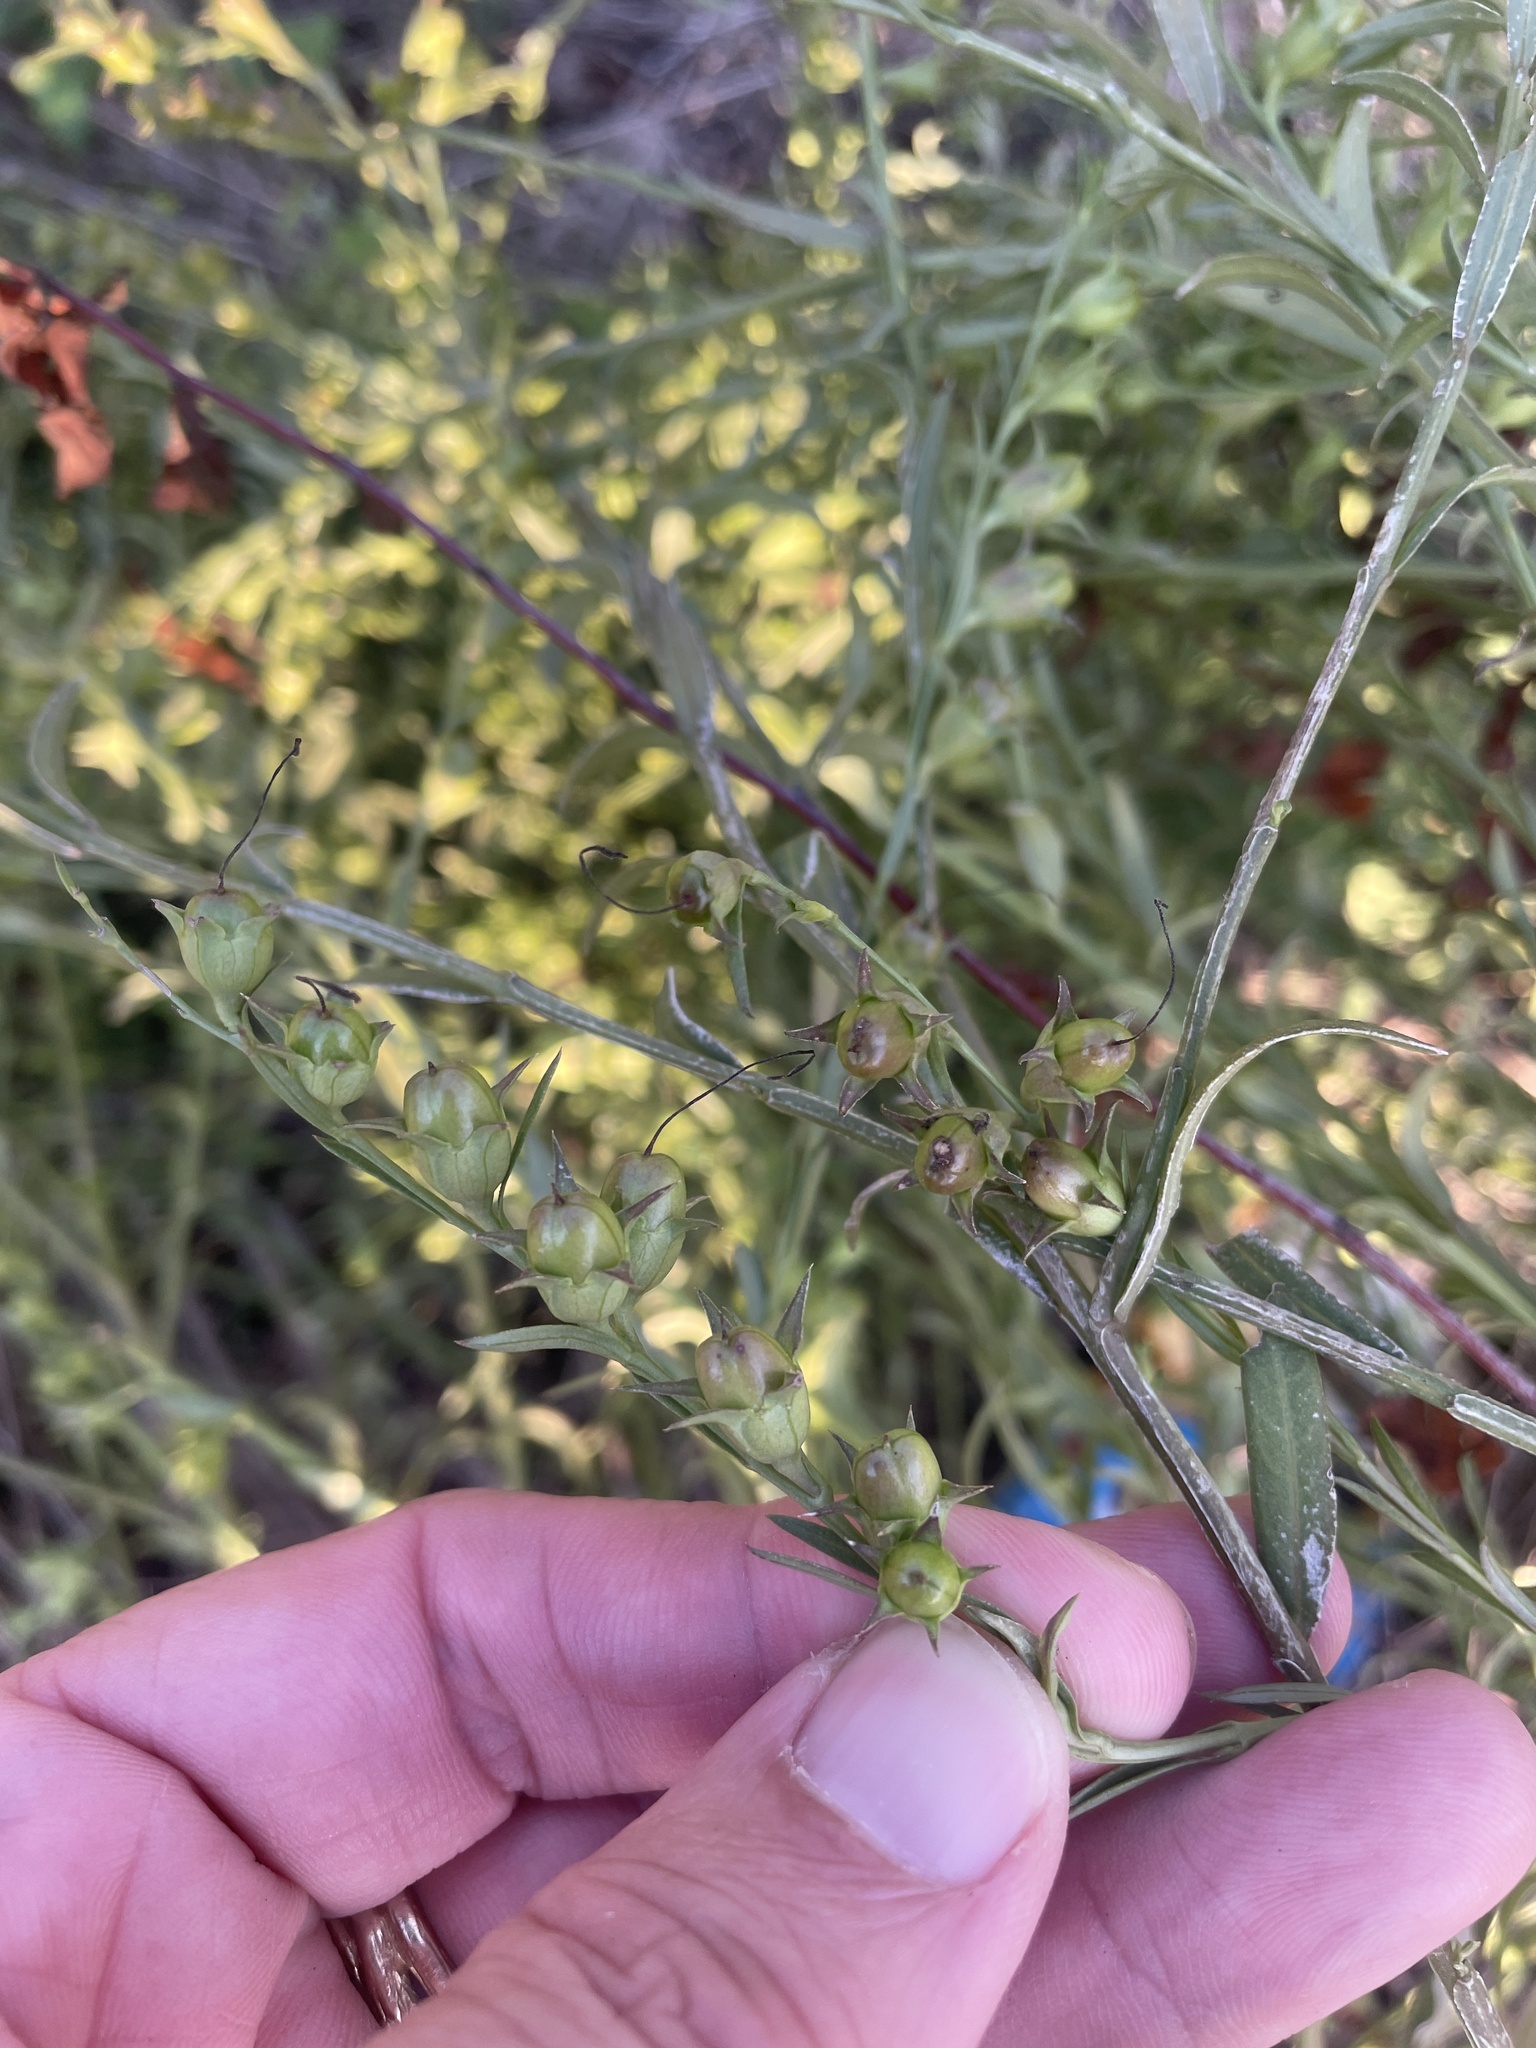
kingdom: Plantae
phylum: Tracheophyta
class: Magnoliopsida
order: Lamiales
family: Orobanchaceae
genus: Agalinis
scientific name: Agalinis heterophylla
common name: Prairie agalinis
